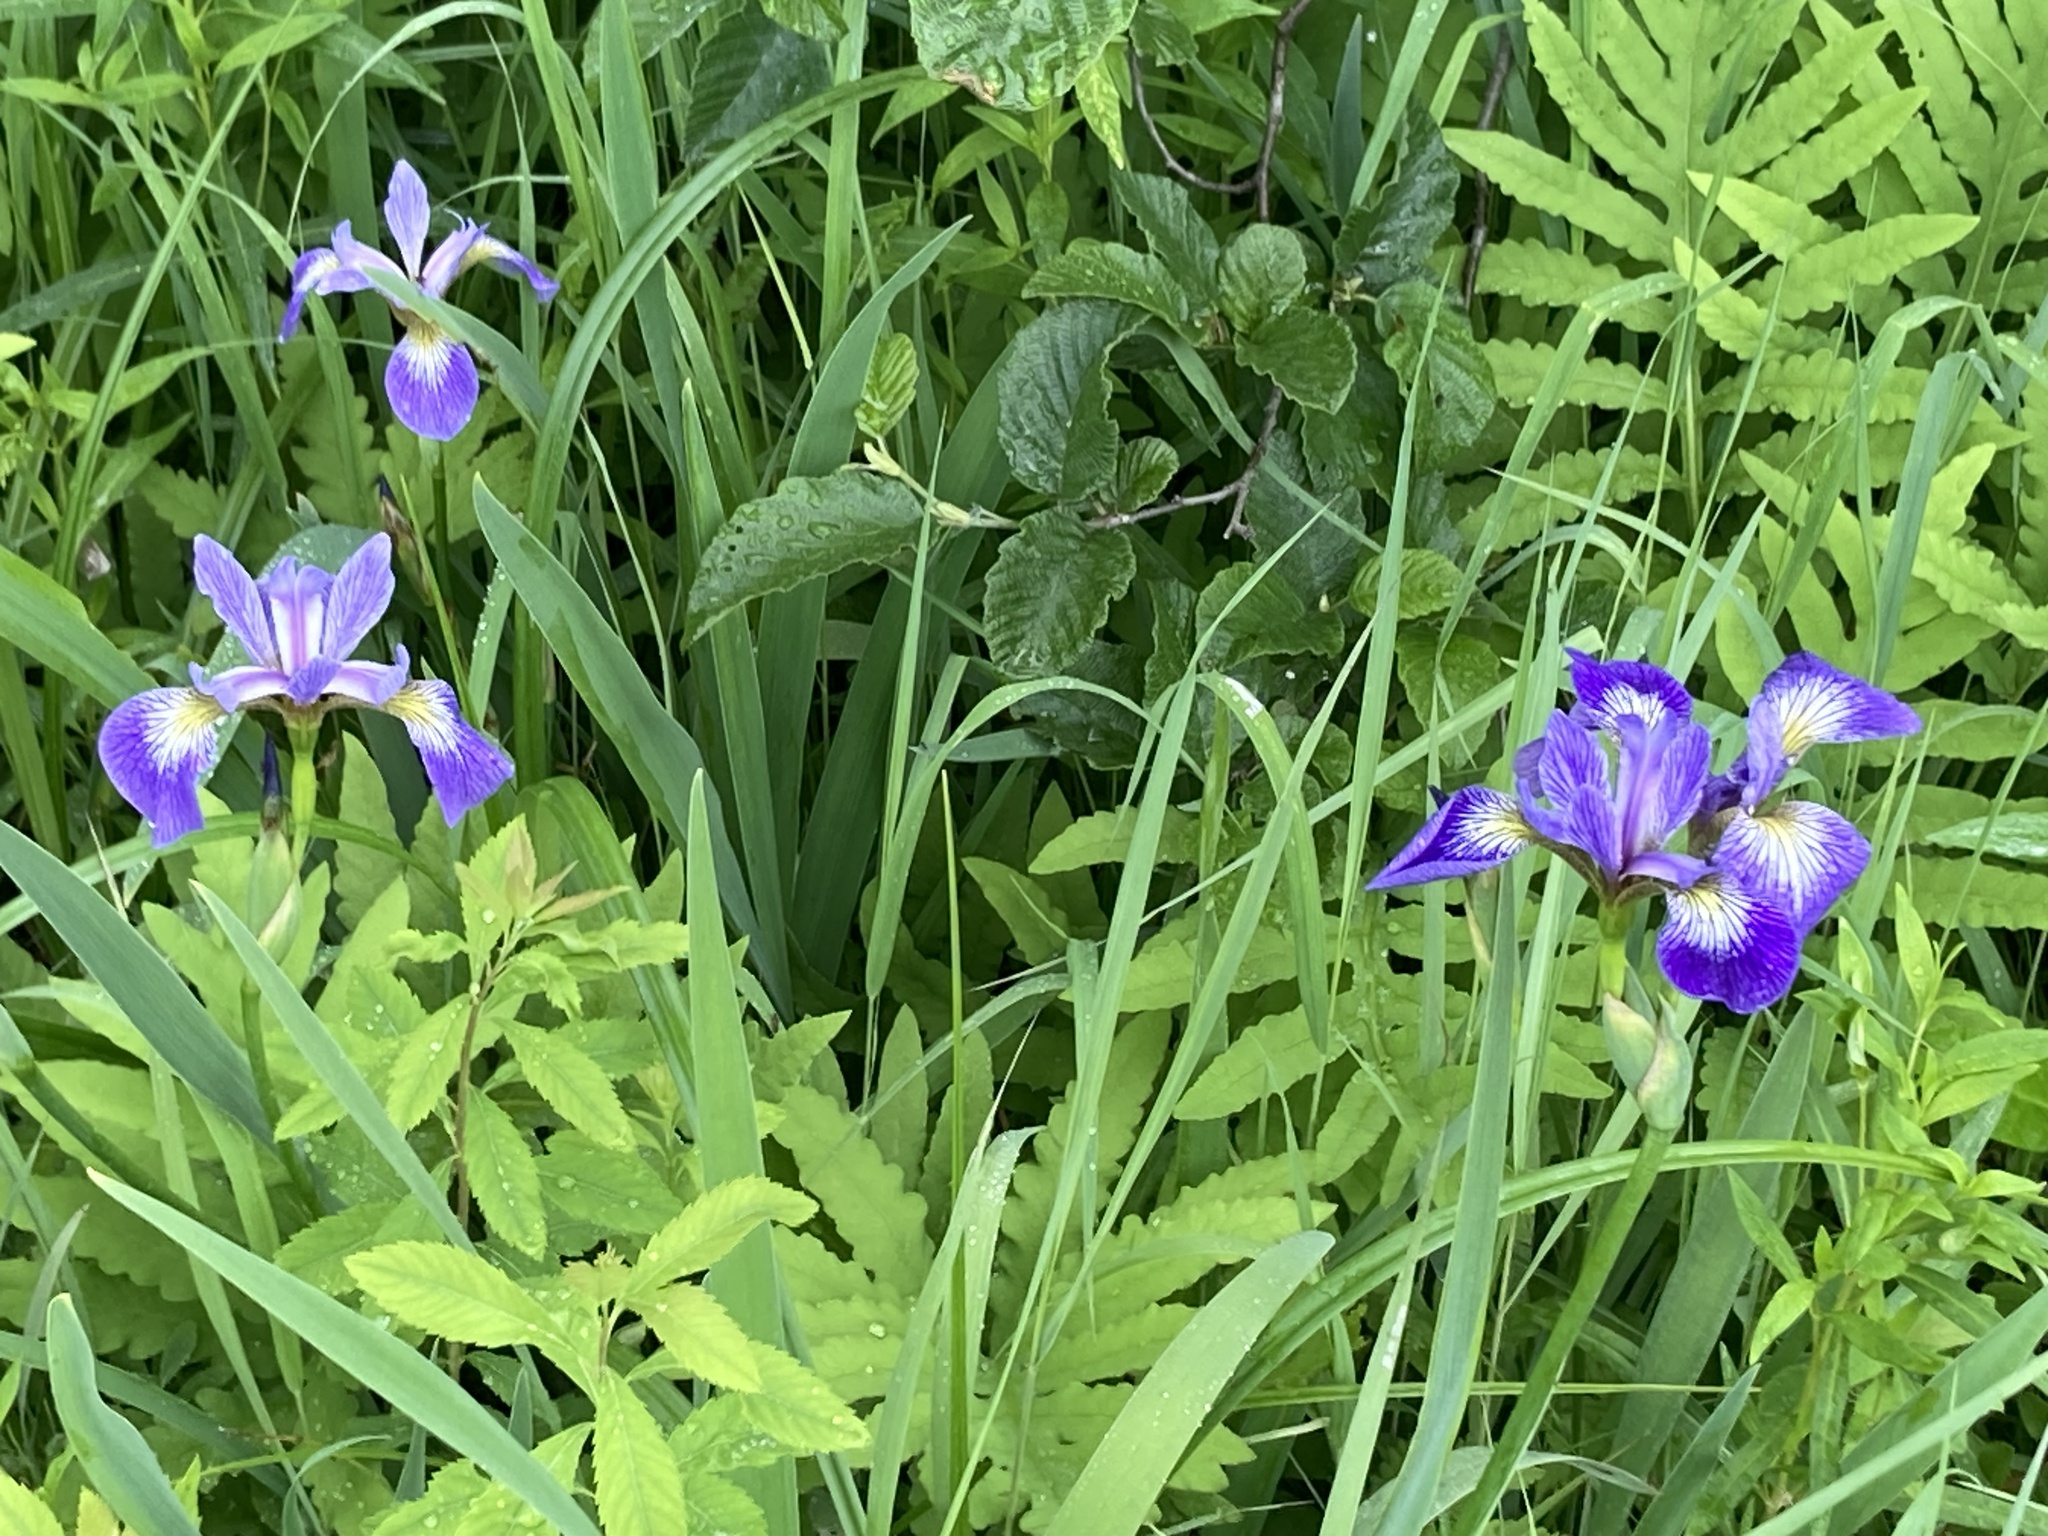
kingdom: Plantae
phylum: Tracheophyta
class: Liliopsida
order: Asparagales
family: Iridaceae
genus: Iris
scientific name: Iris versicolor
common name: Purple iris
